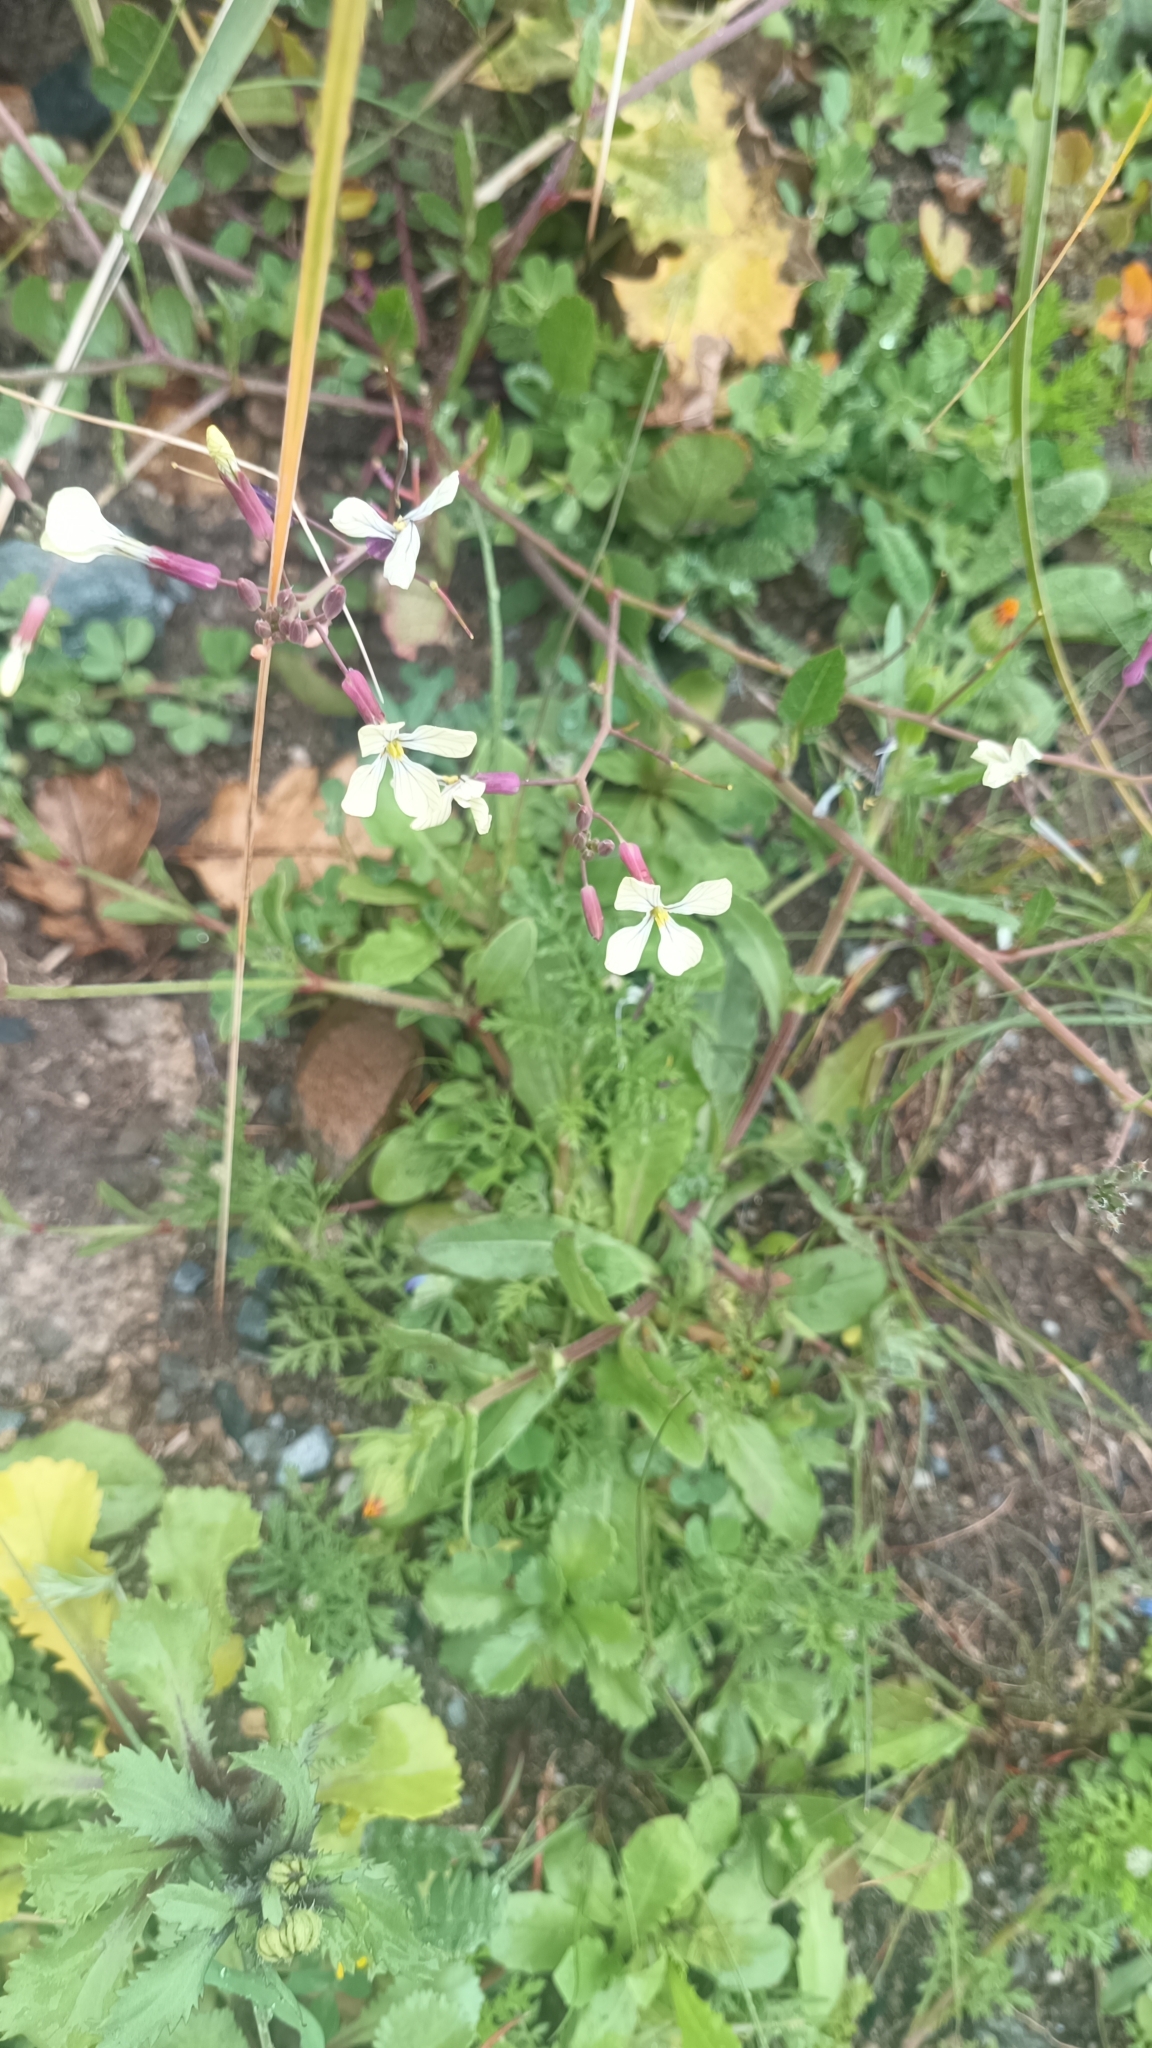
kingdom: Plantae
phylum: Tracheophyta
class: Magnoliopsida
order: Brassicales
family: Brassicaceae
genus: Raphanus
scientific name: Raphanus raphanistrum
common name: Wild radish
